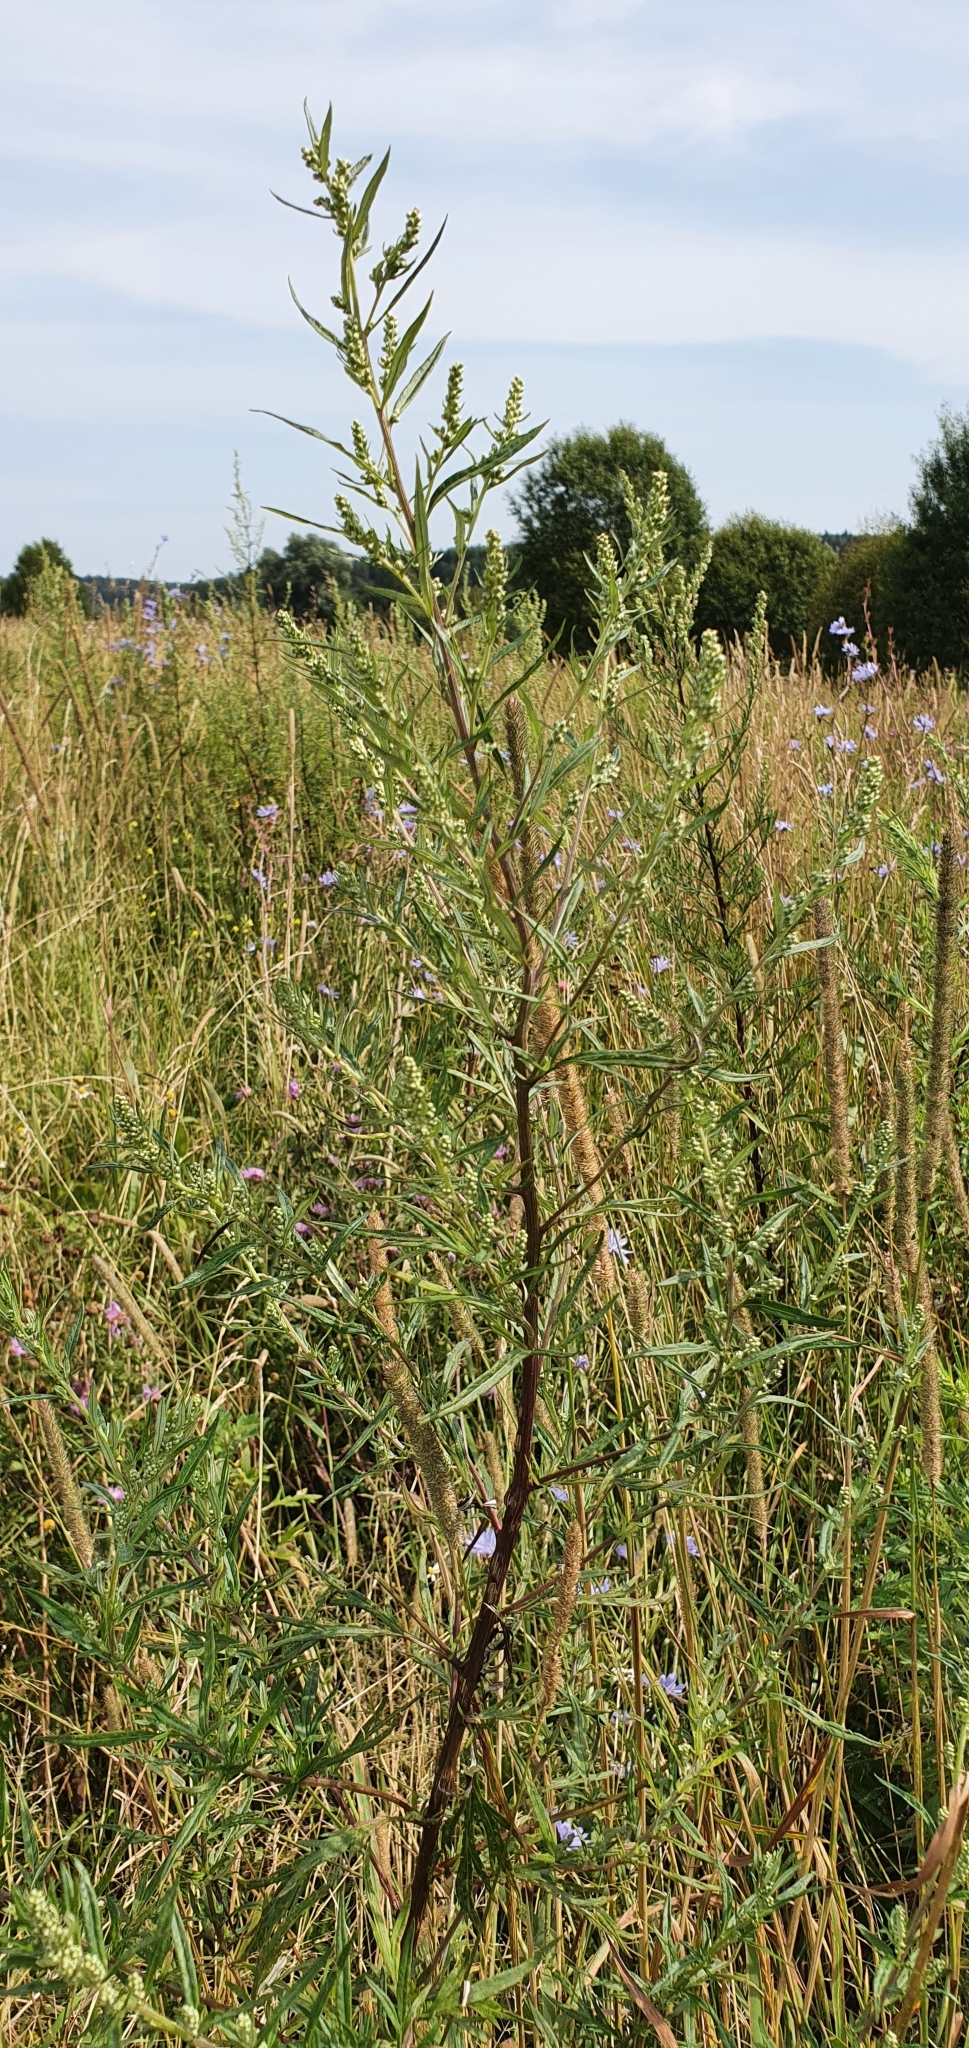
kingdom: Plantae
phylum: Tracheophyta
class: Magnoliopsida
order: Asterales
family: Asteraceae
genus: Artemisia
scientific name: Artemisia vulgaris
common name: Mugwort
